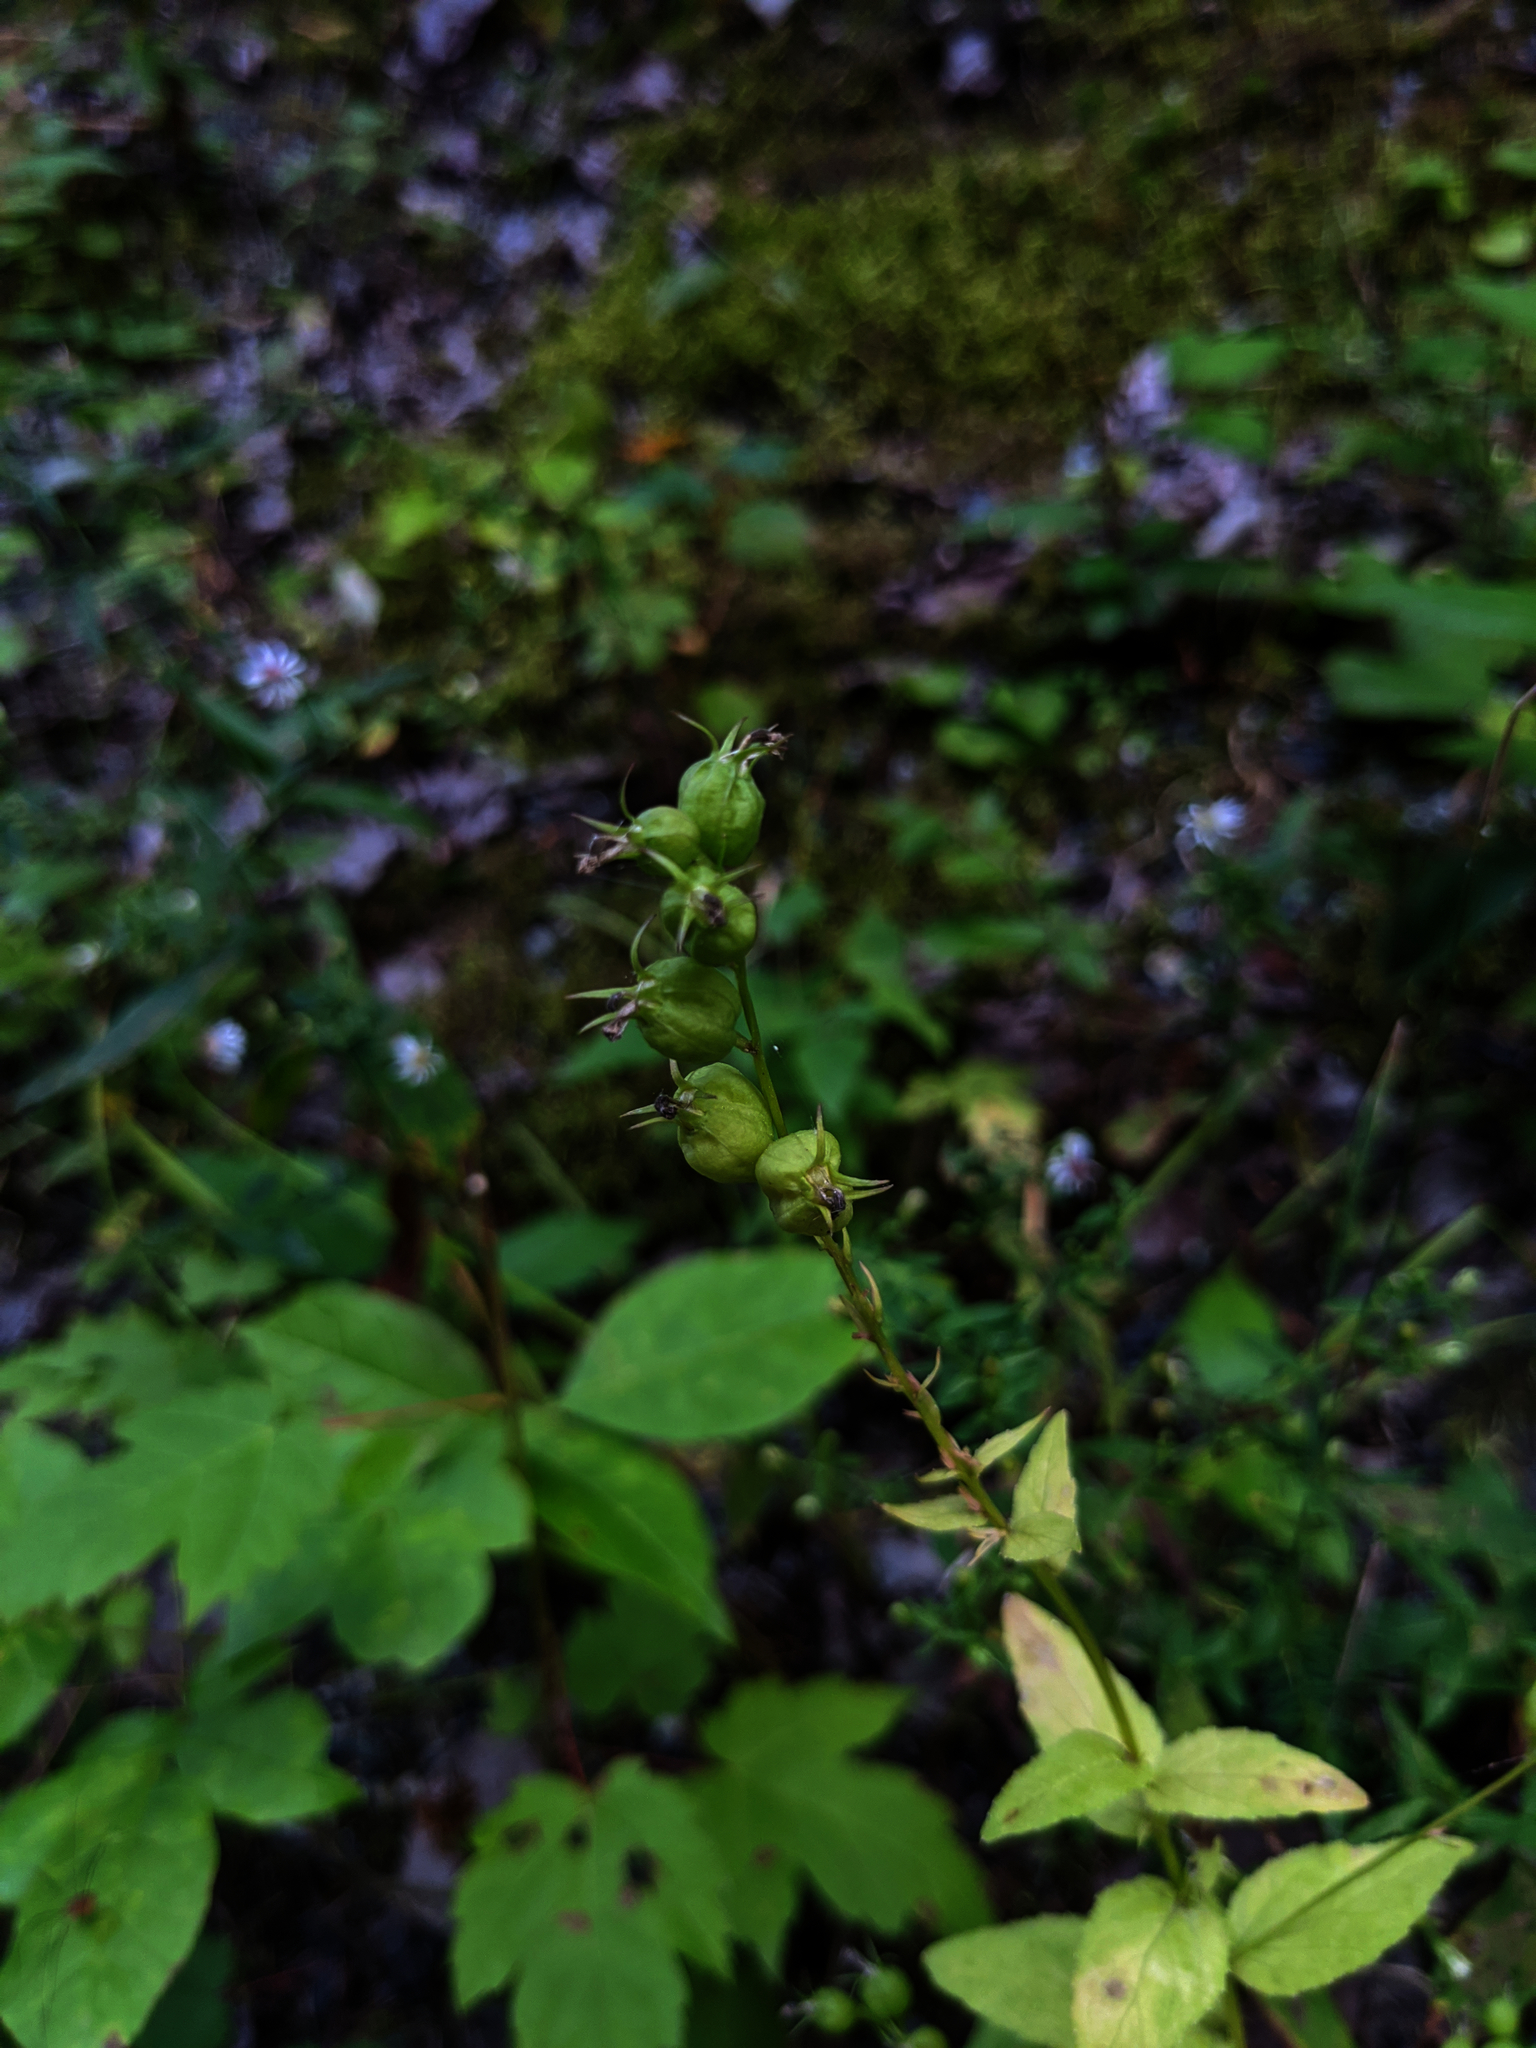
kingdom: Plantae
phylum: Tracheophyta
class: Magnoliopsida
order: Asterales
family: Campanulaceae
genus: Lobelia
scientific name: Lobelia inflata
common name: Indian tobacco
